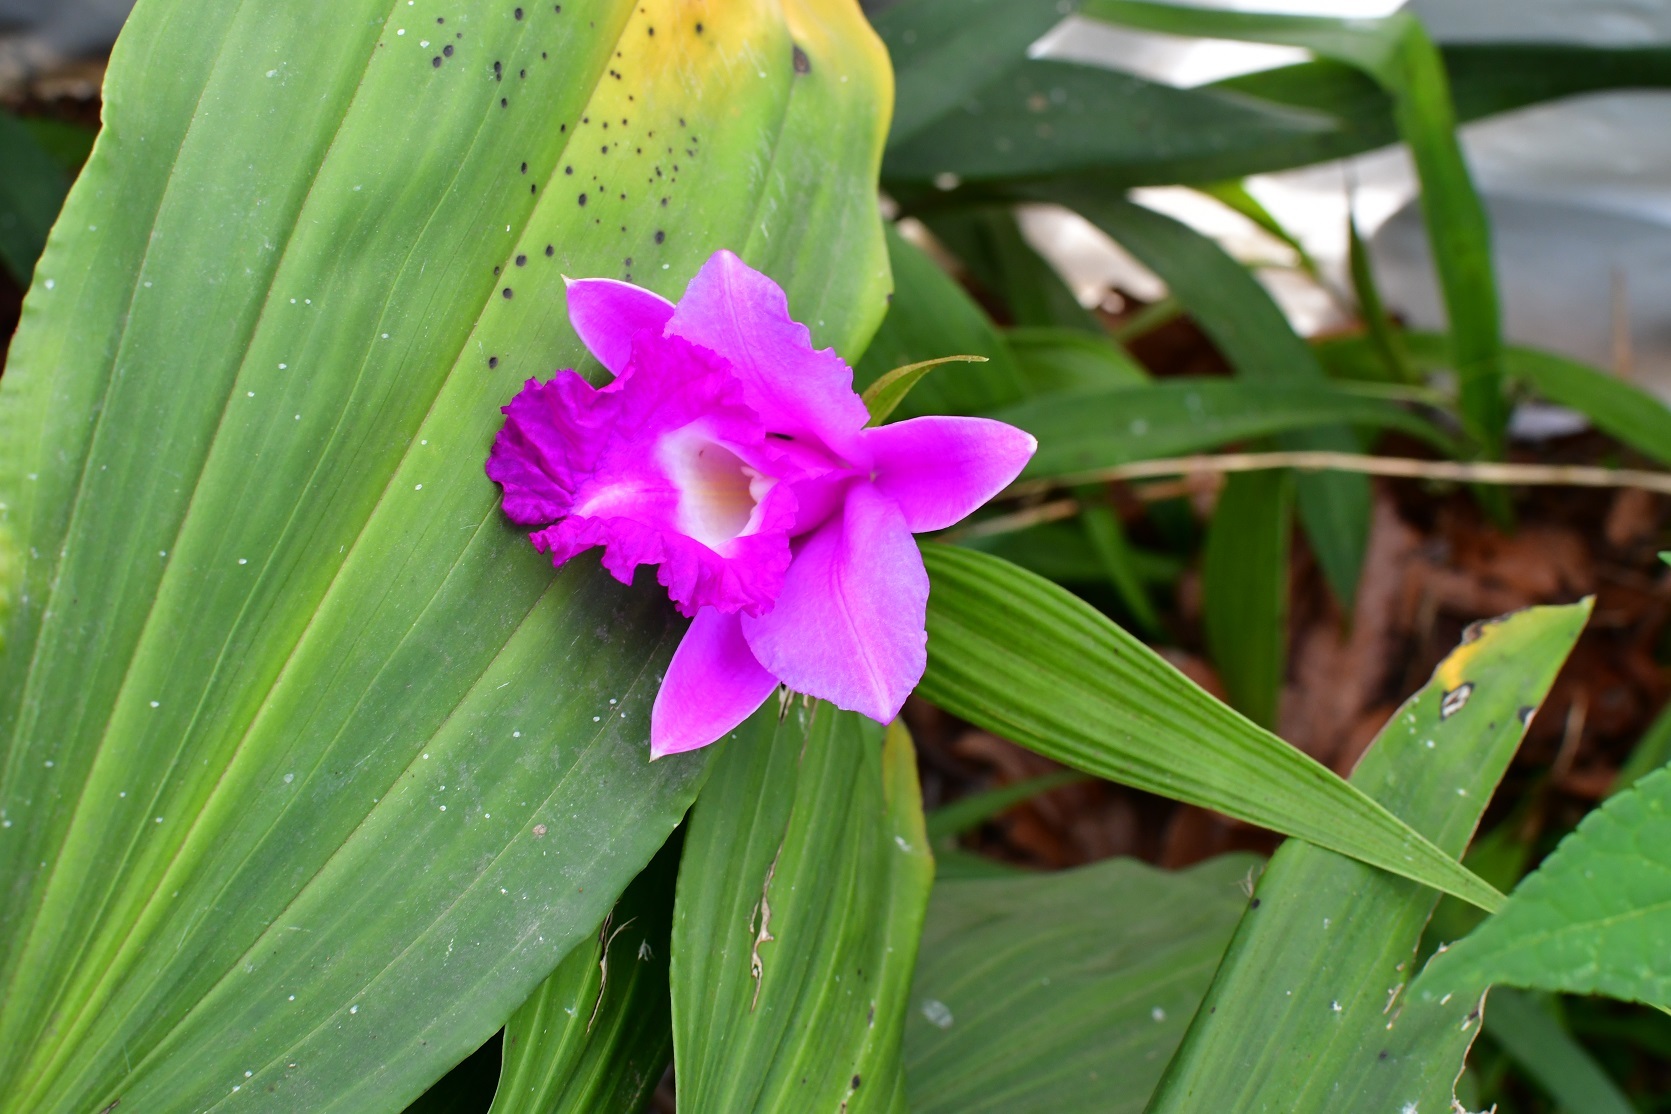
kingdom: Plantae
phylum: Tracheophyta
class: Liliopsida
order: Asparagales
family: Orchidaceae
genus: Sobralia
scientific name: Sobralia macrantha
